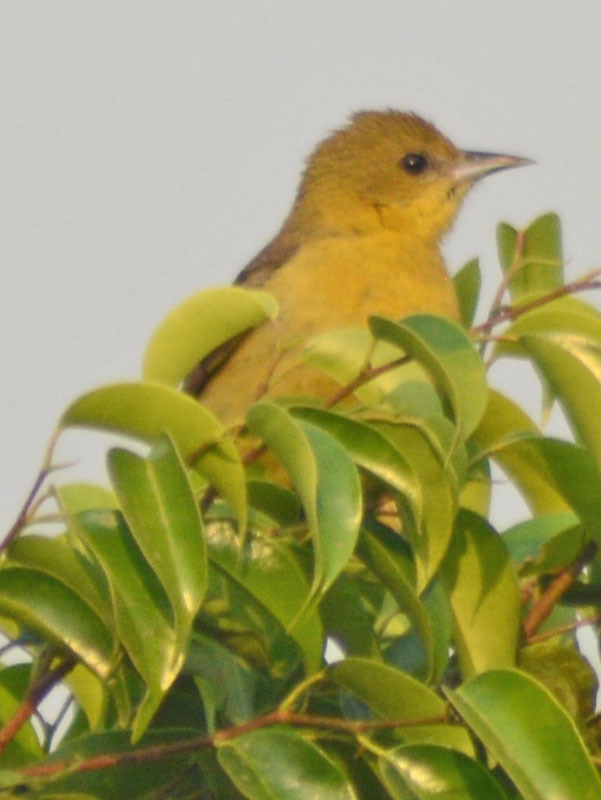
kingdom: Animalia
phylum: Chordata
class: Aves
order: Passeriformes
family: Icteridae
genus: Icterus
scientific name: Icterus spurius
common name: Orchard oriole
